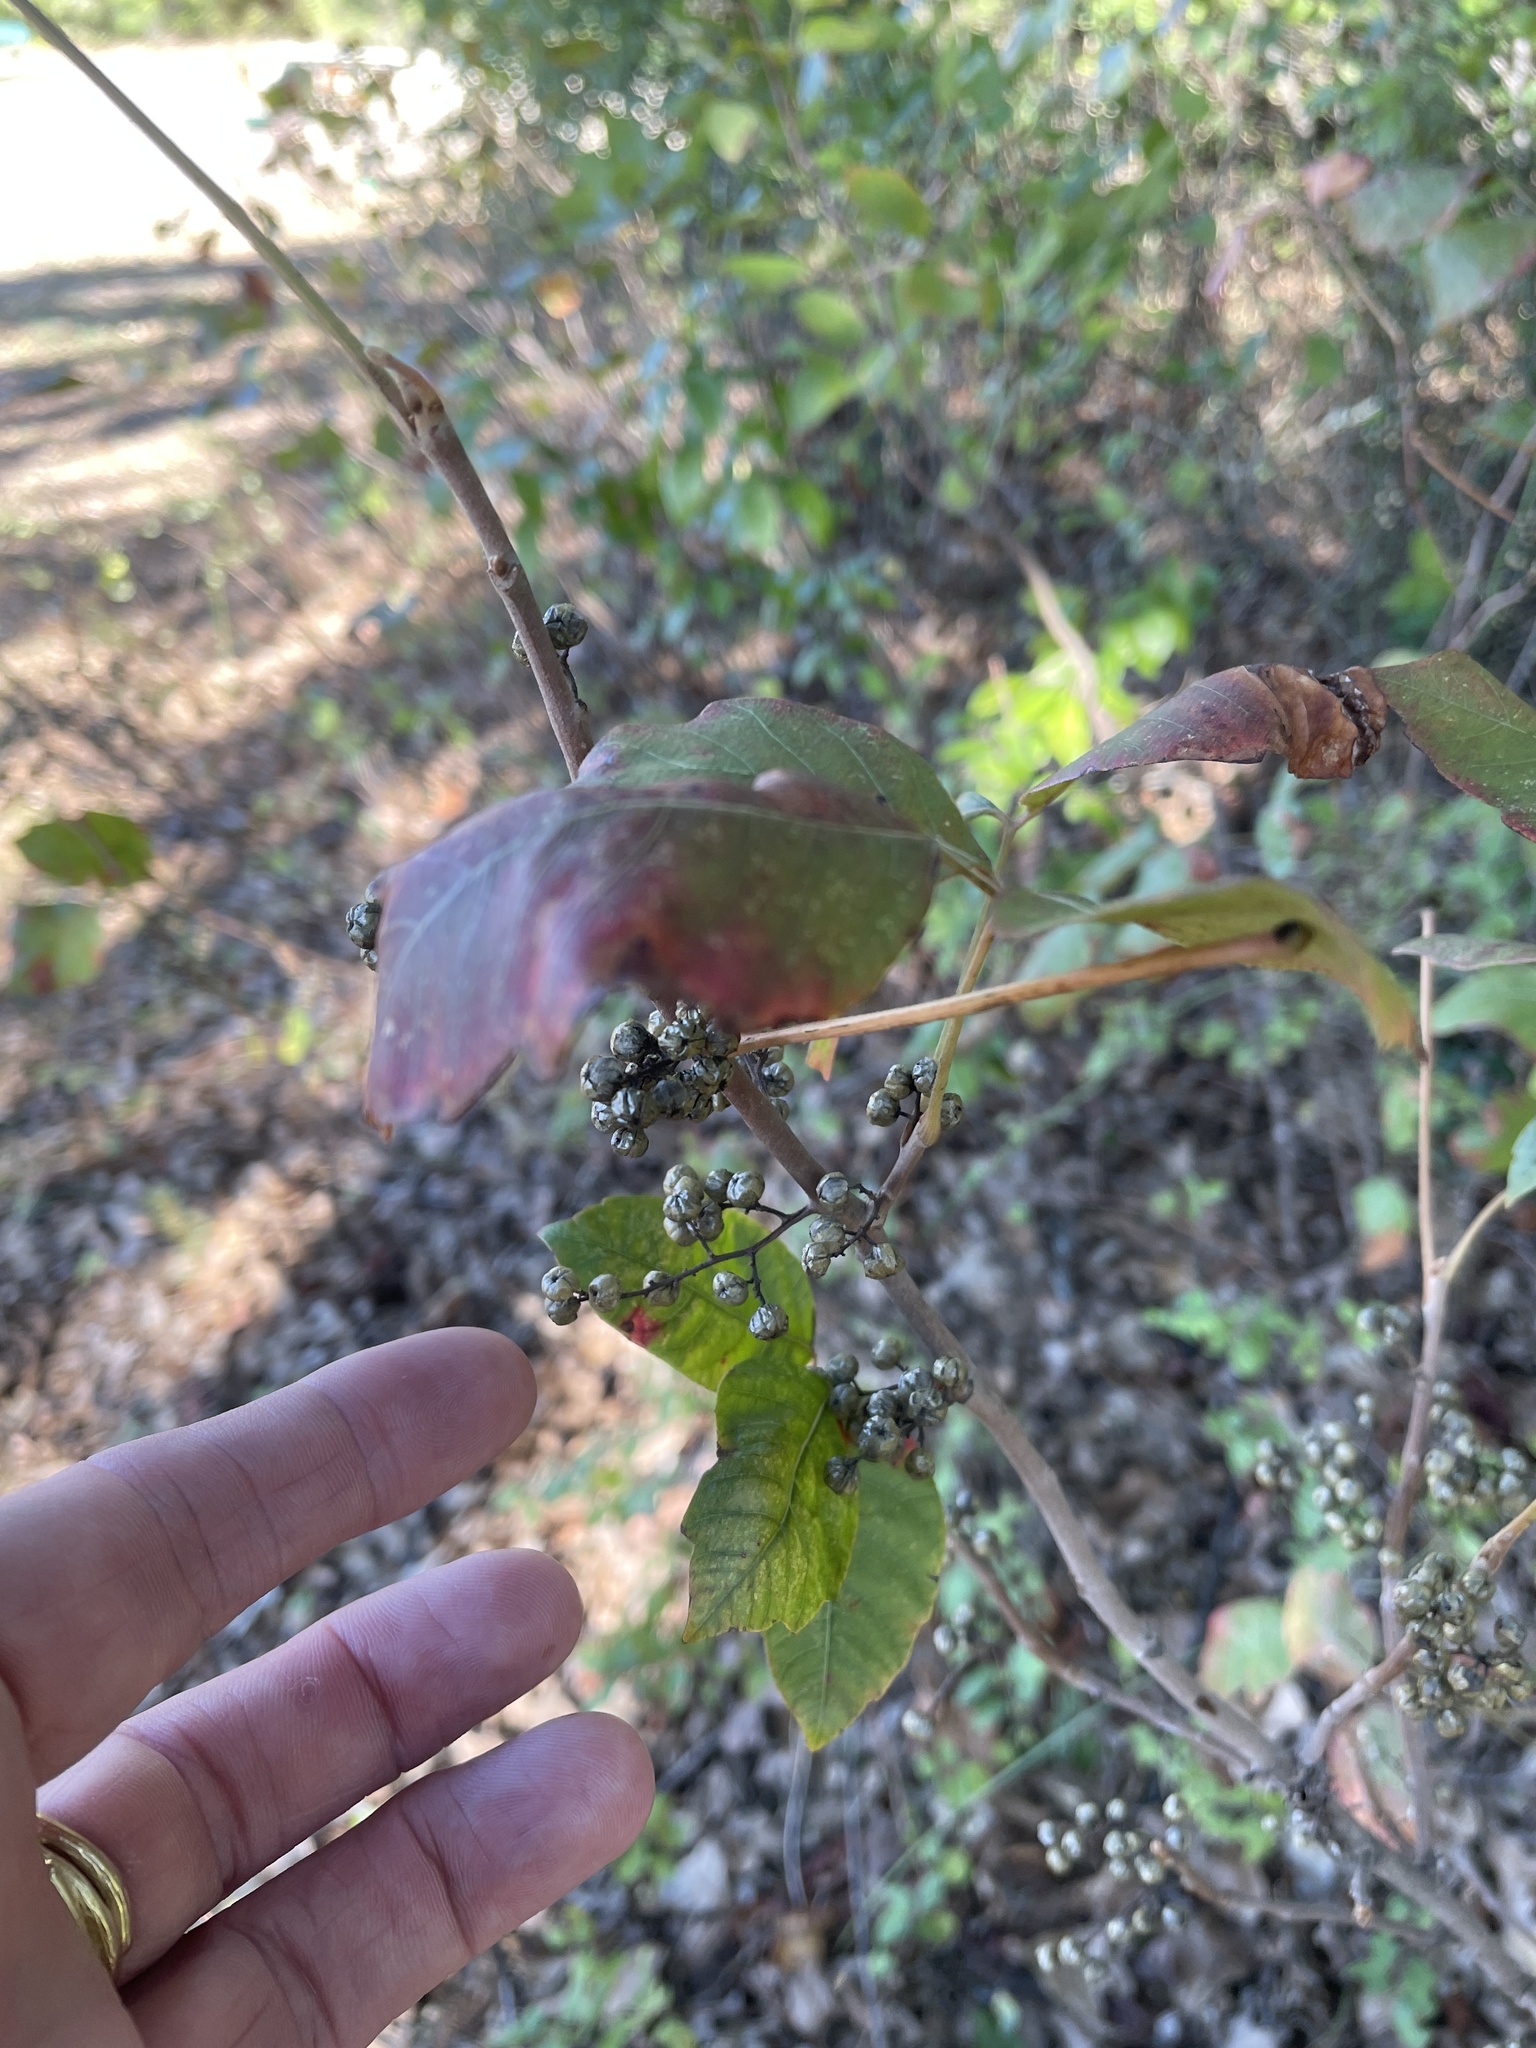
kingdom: Plantae
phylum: Tracheophyta
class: Magnoliopsida
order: Sapindales
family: Anacardiaceae
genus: Toxicodendron
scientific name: Toxicodendron radicans
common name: Poison ivy
